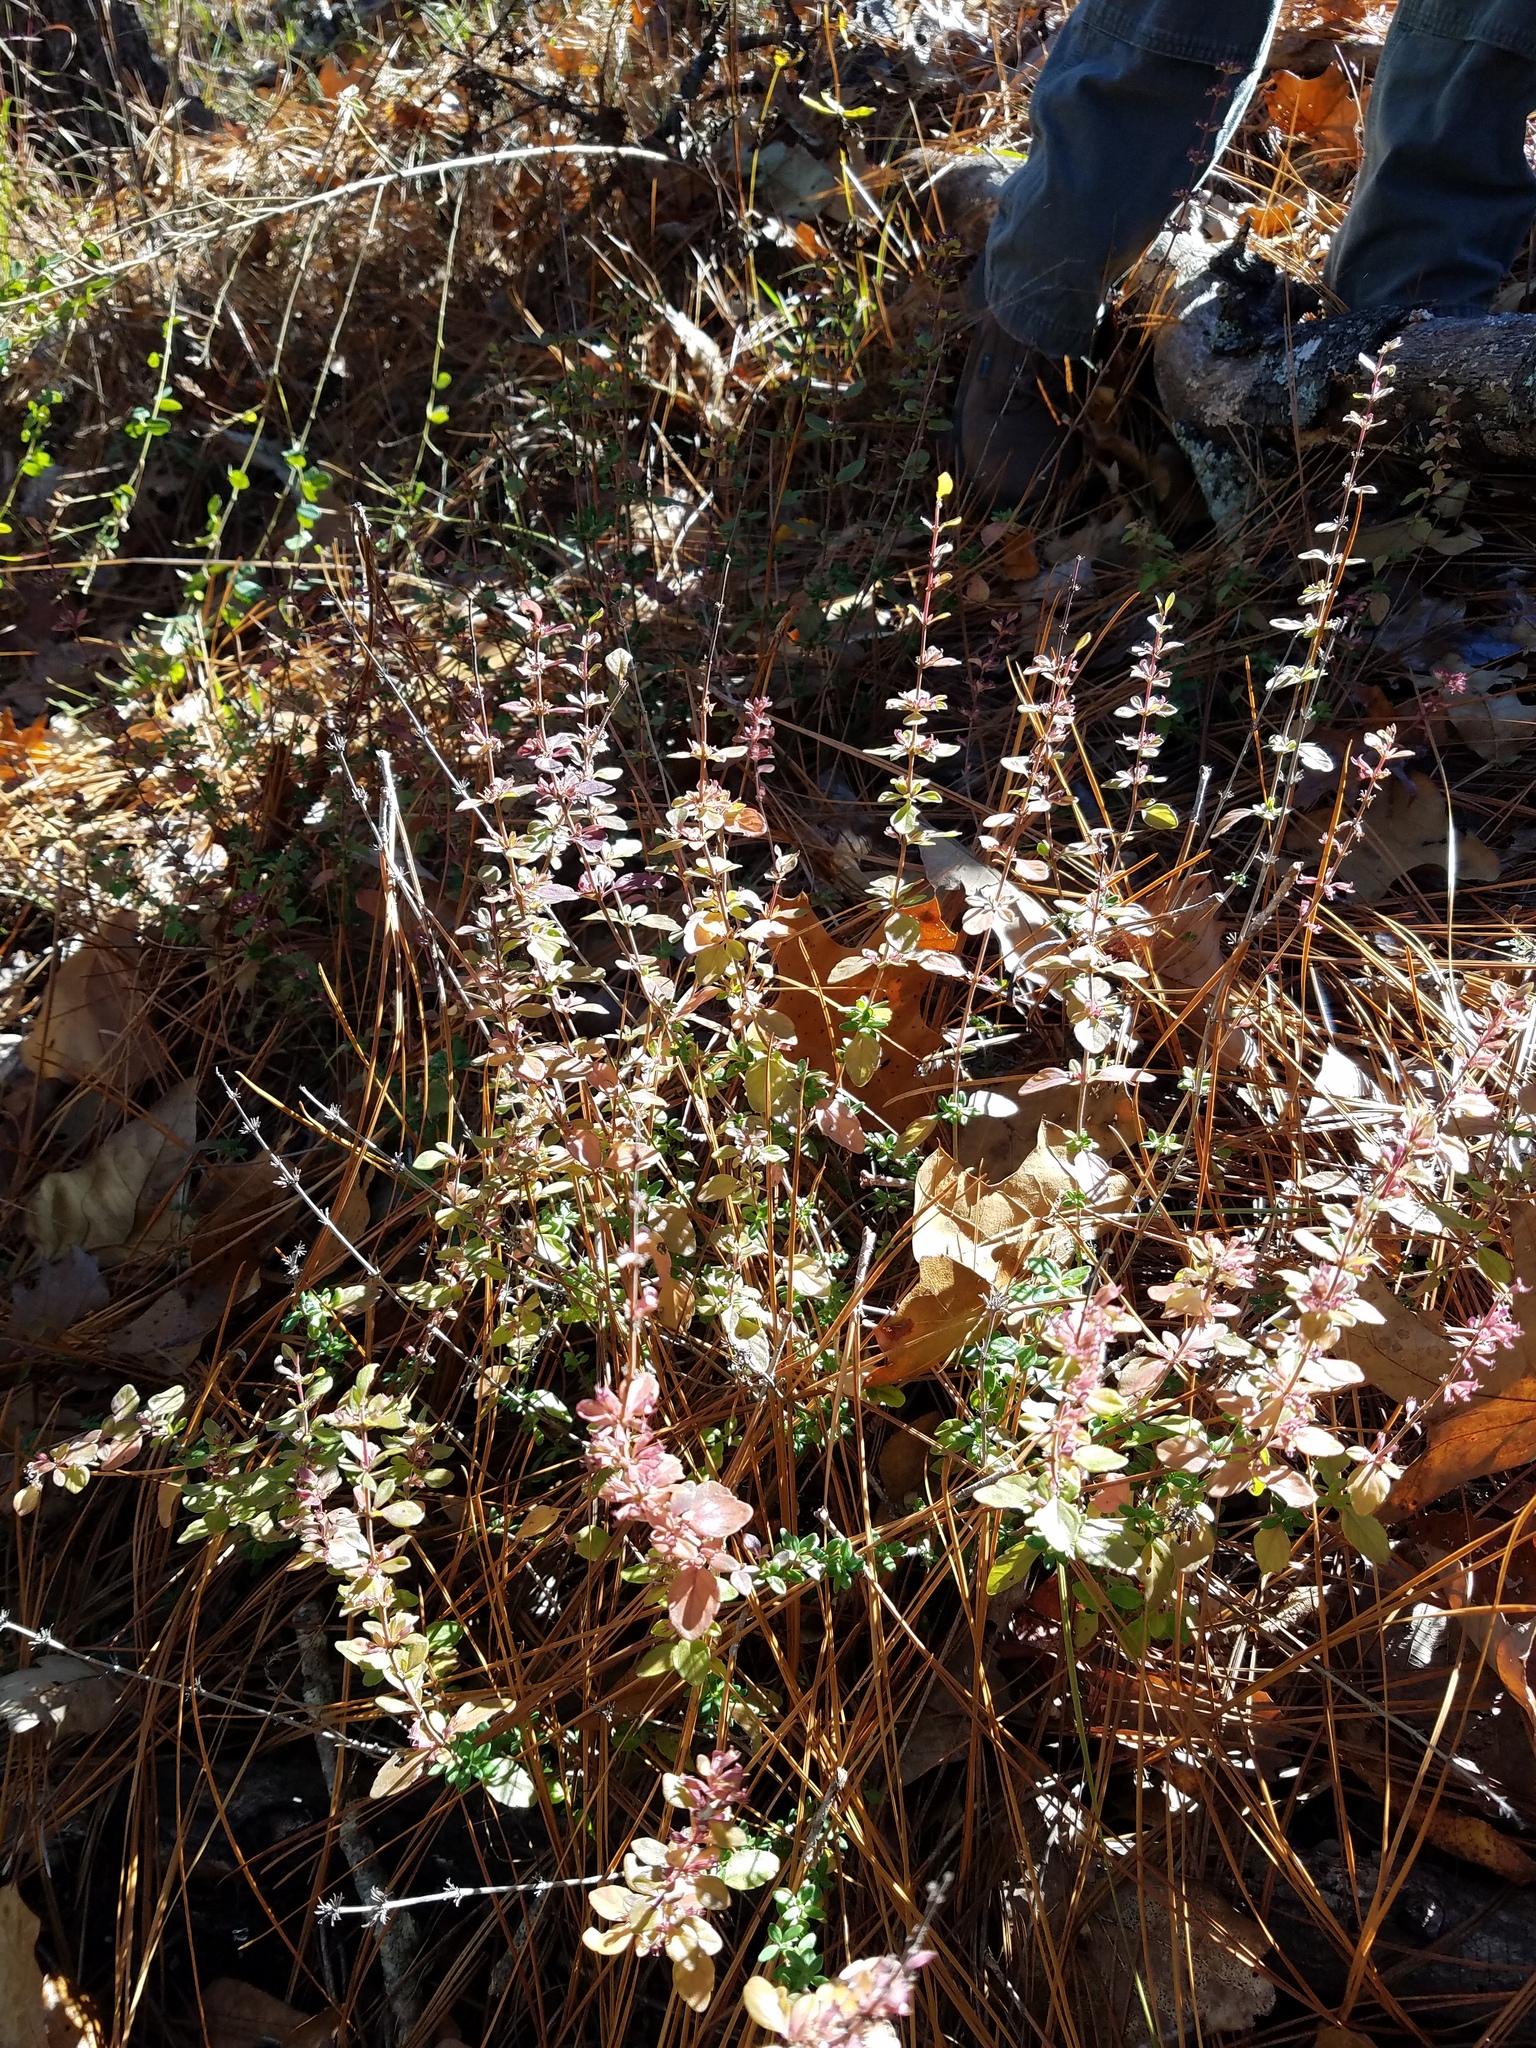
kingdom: Plantae
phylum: Tracheophyta
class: Magnoliopsida
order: Lamiales
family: Lamiaceae
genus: Clinopodium
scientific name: Clinopodium carolinianum
